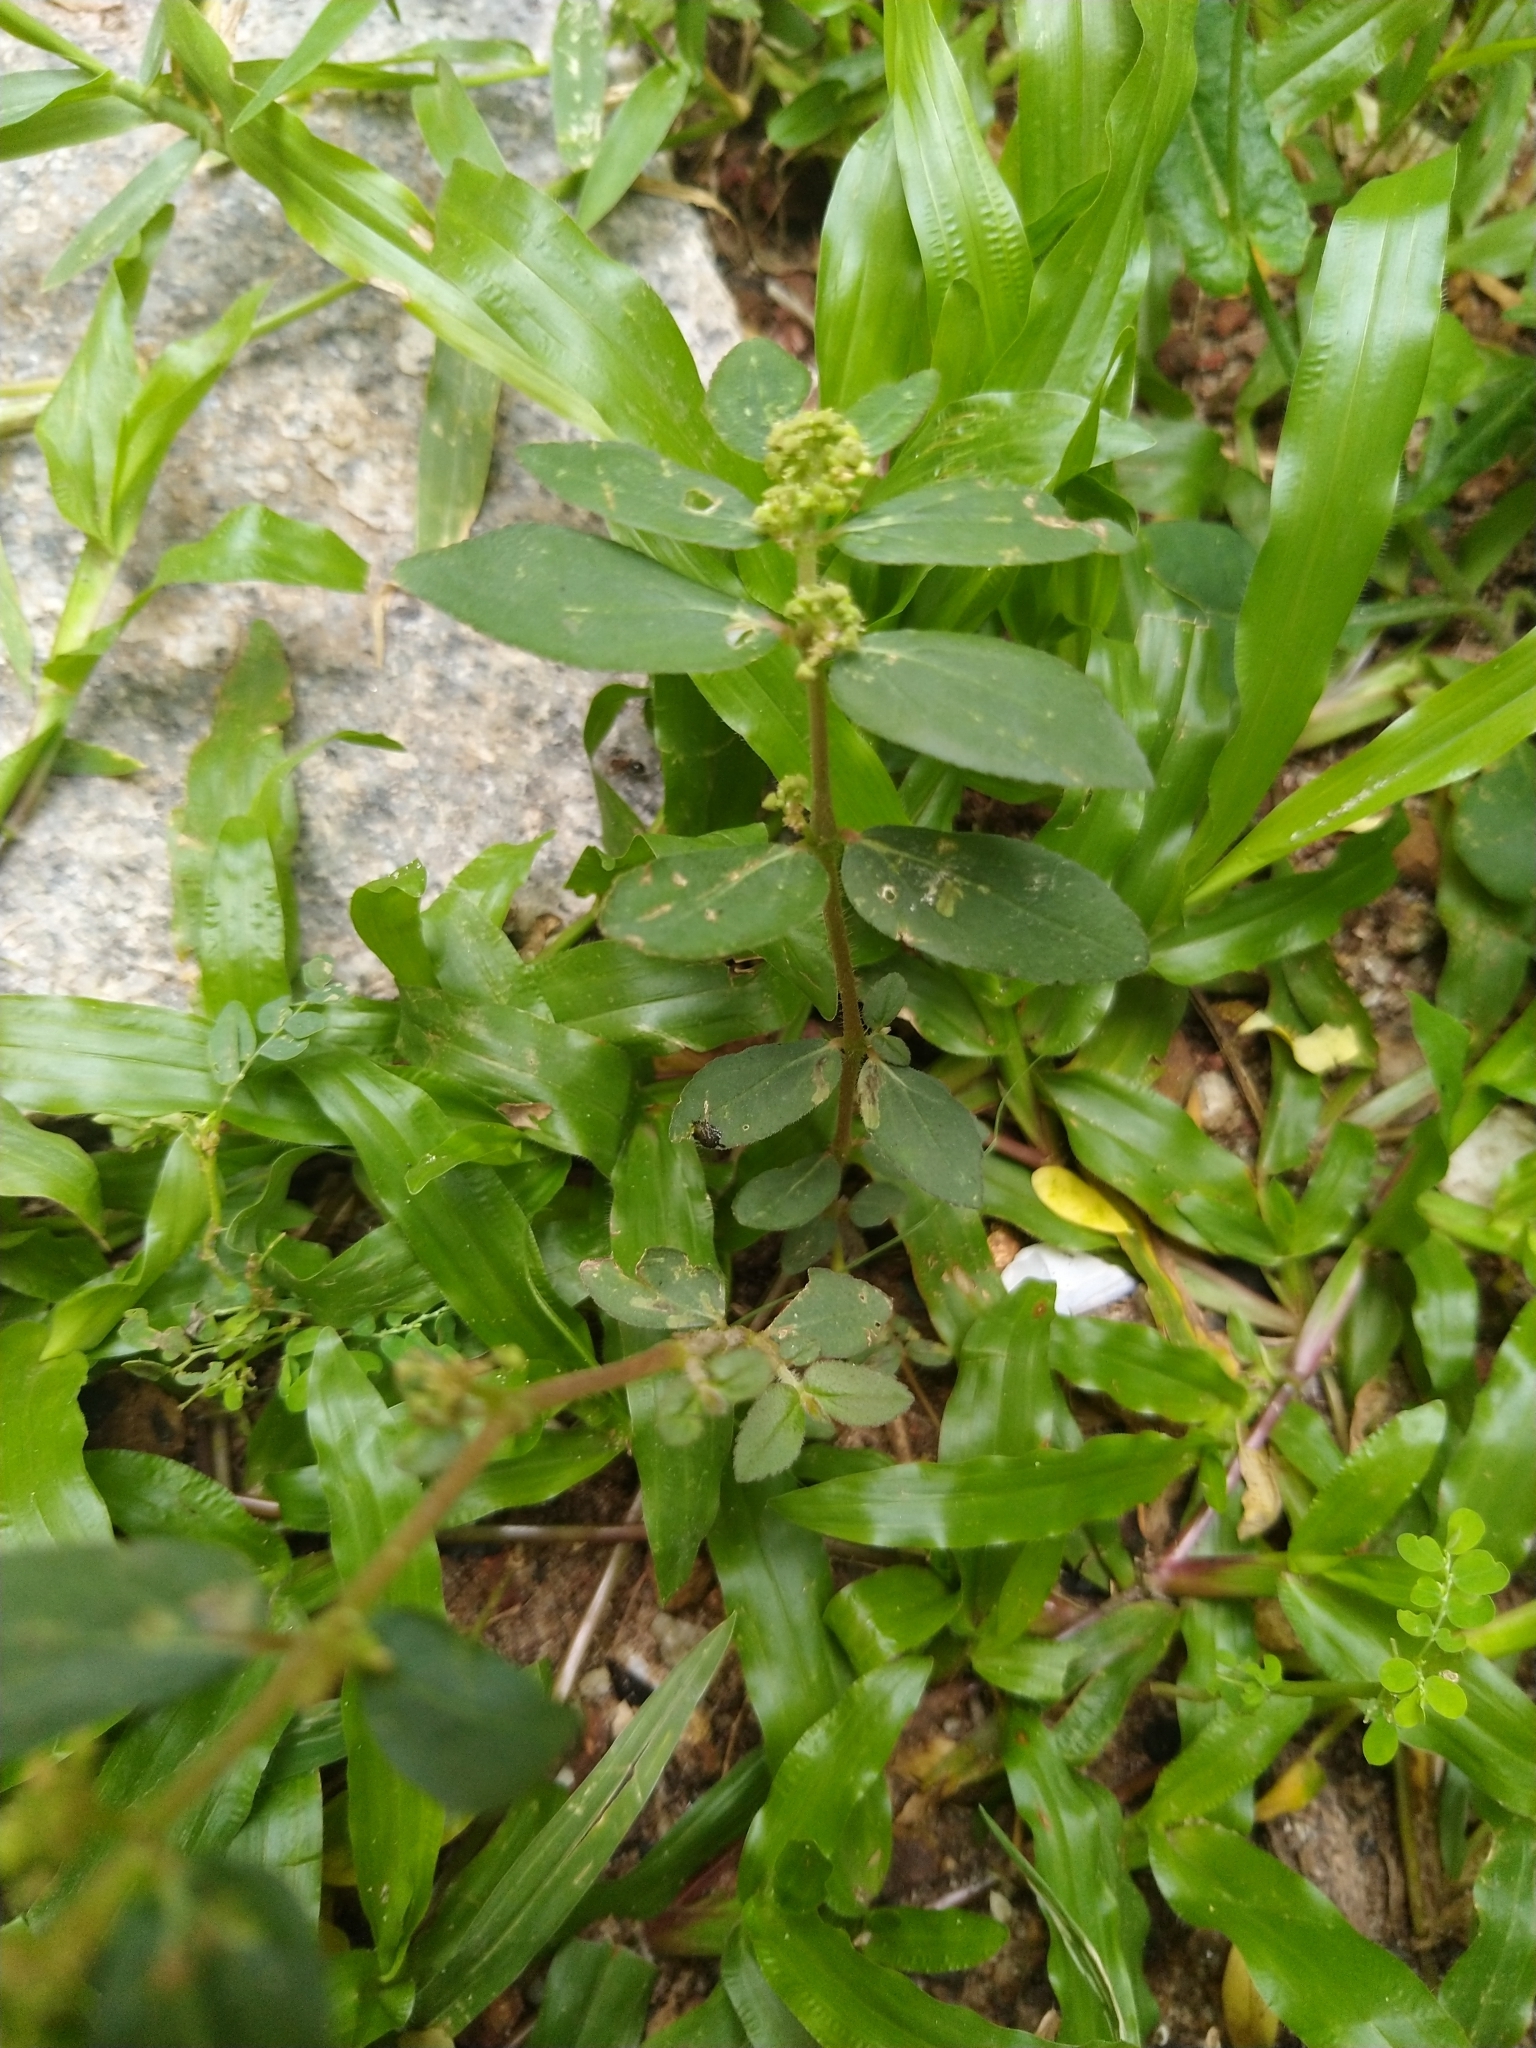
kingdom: Plantae
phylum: Tracheophyta
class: Magnoliopsida
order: Malpighiales
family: Euphorbiaceae
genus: Euphorbia
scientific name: Euphorbia hirta
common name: Pillpod sandmat
